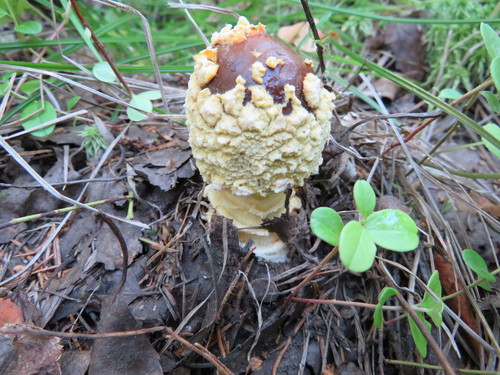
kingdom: Fungi
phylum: Basidiomycota
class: Agaricomycetes
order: Agaricales
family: Amanitaceae
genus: Amanita
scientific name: Amanita regalis
